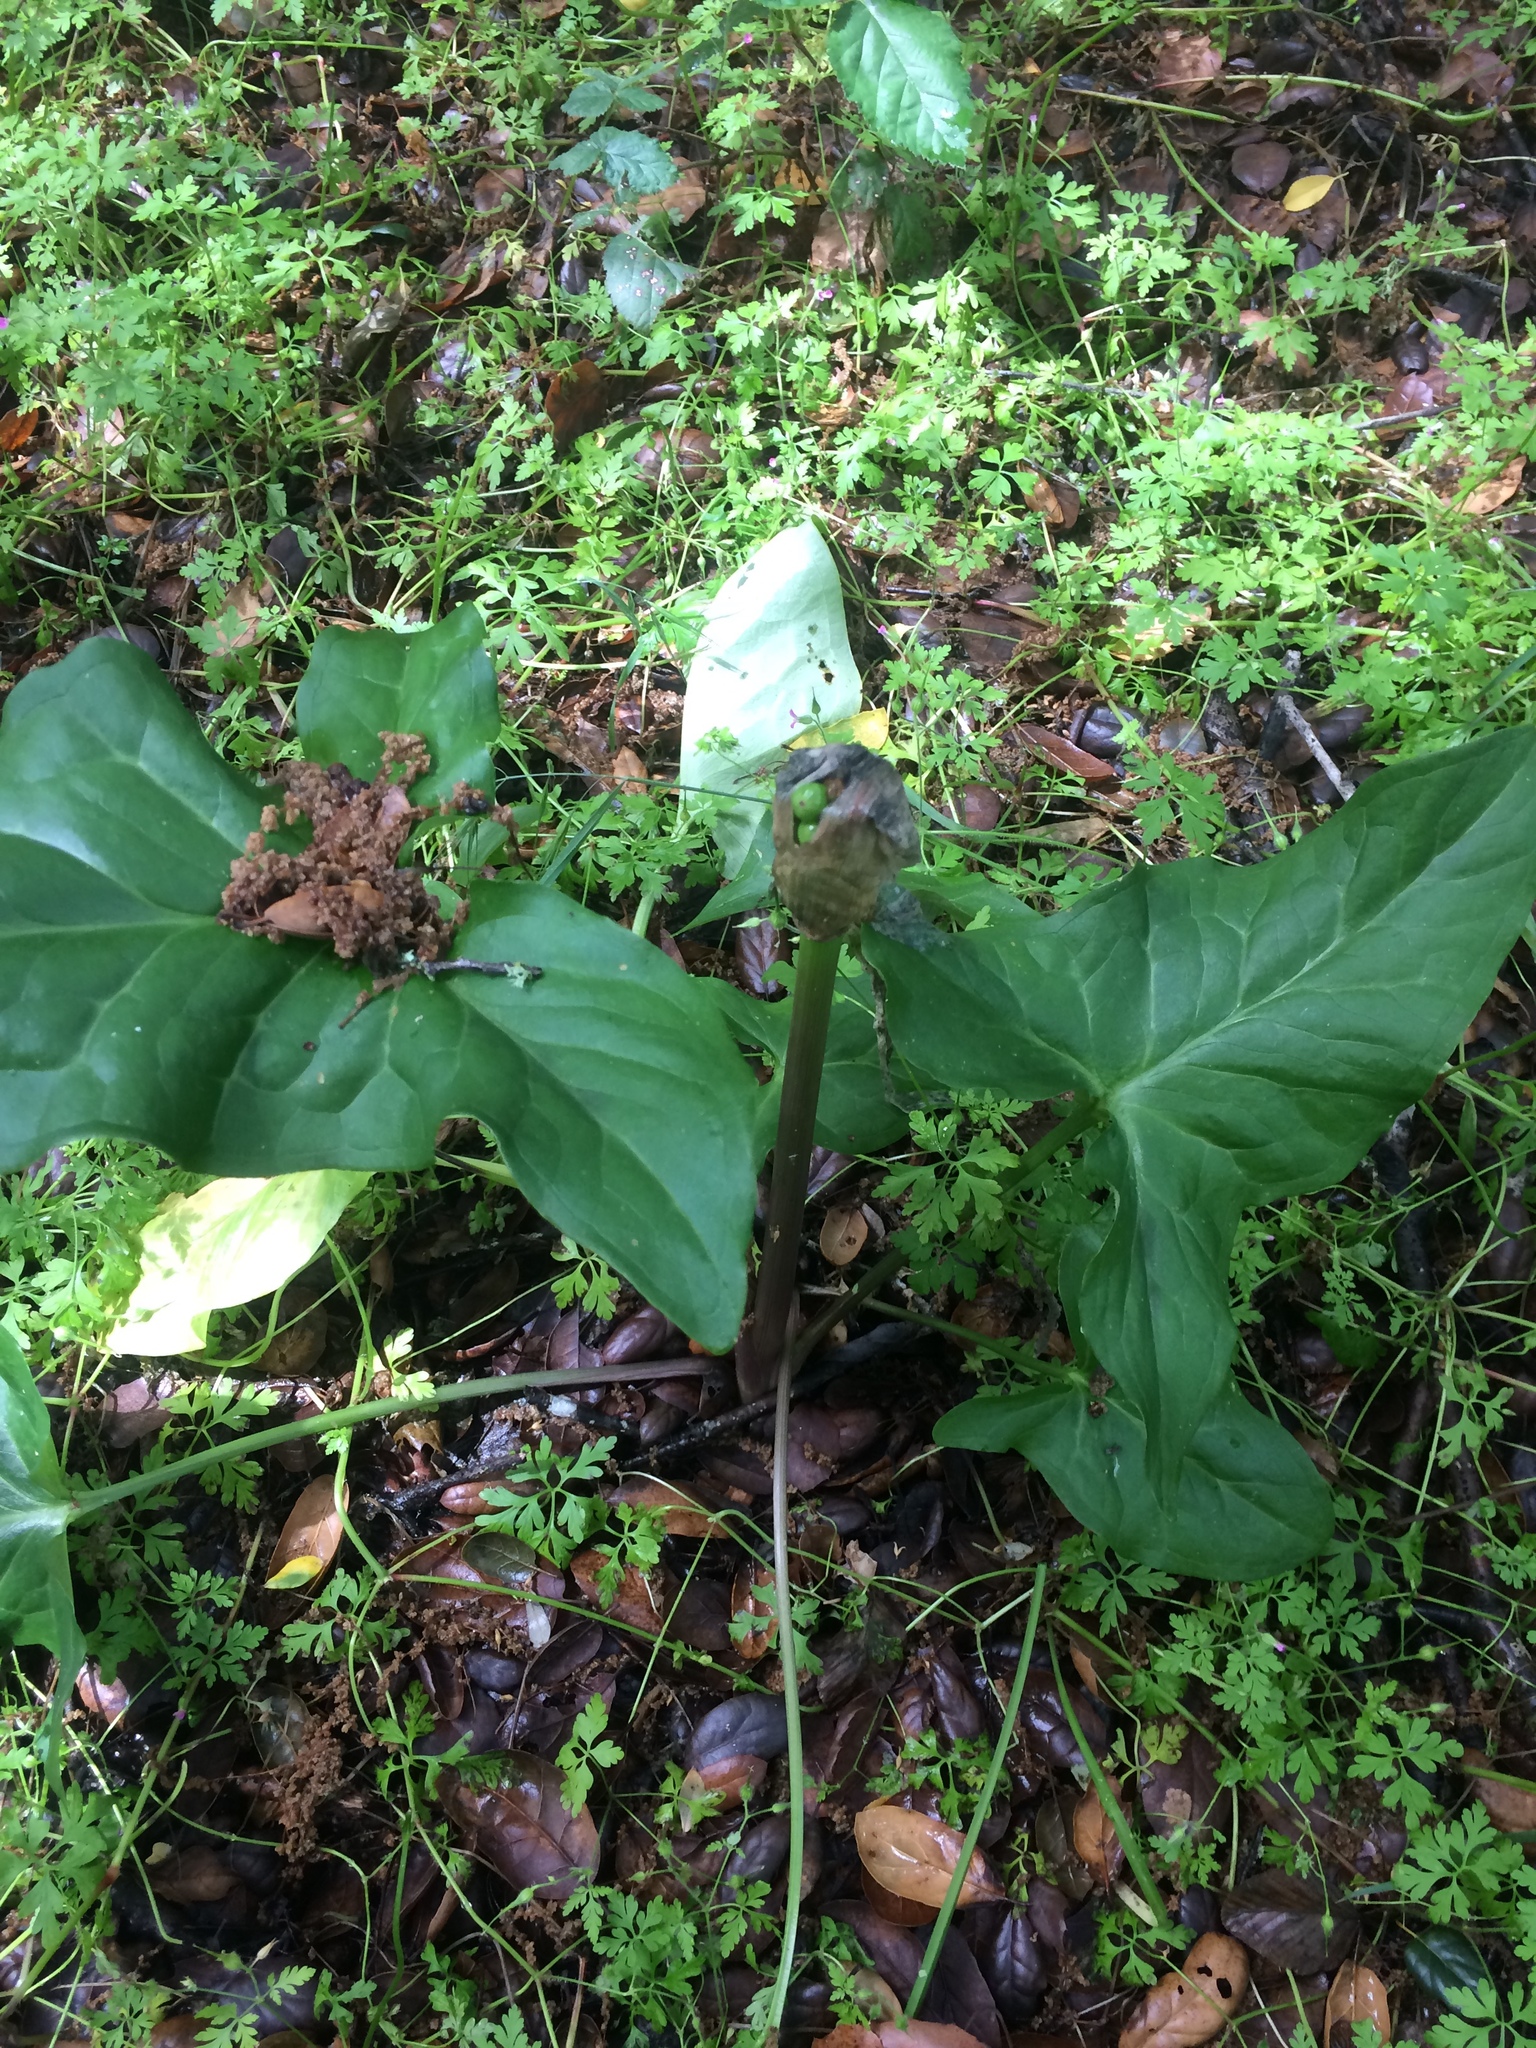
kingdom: Plantae
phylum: Tracheophyta
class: Liliopsida
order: Alismatales
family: Araceae
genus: Arum
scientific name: Arum italicum
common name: Italian lords-and-ladies
